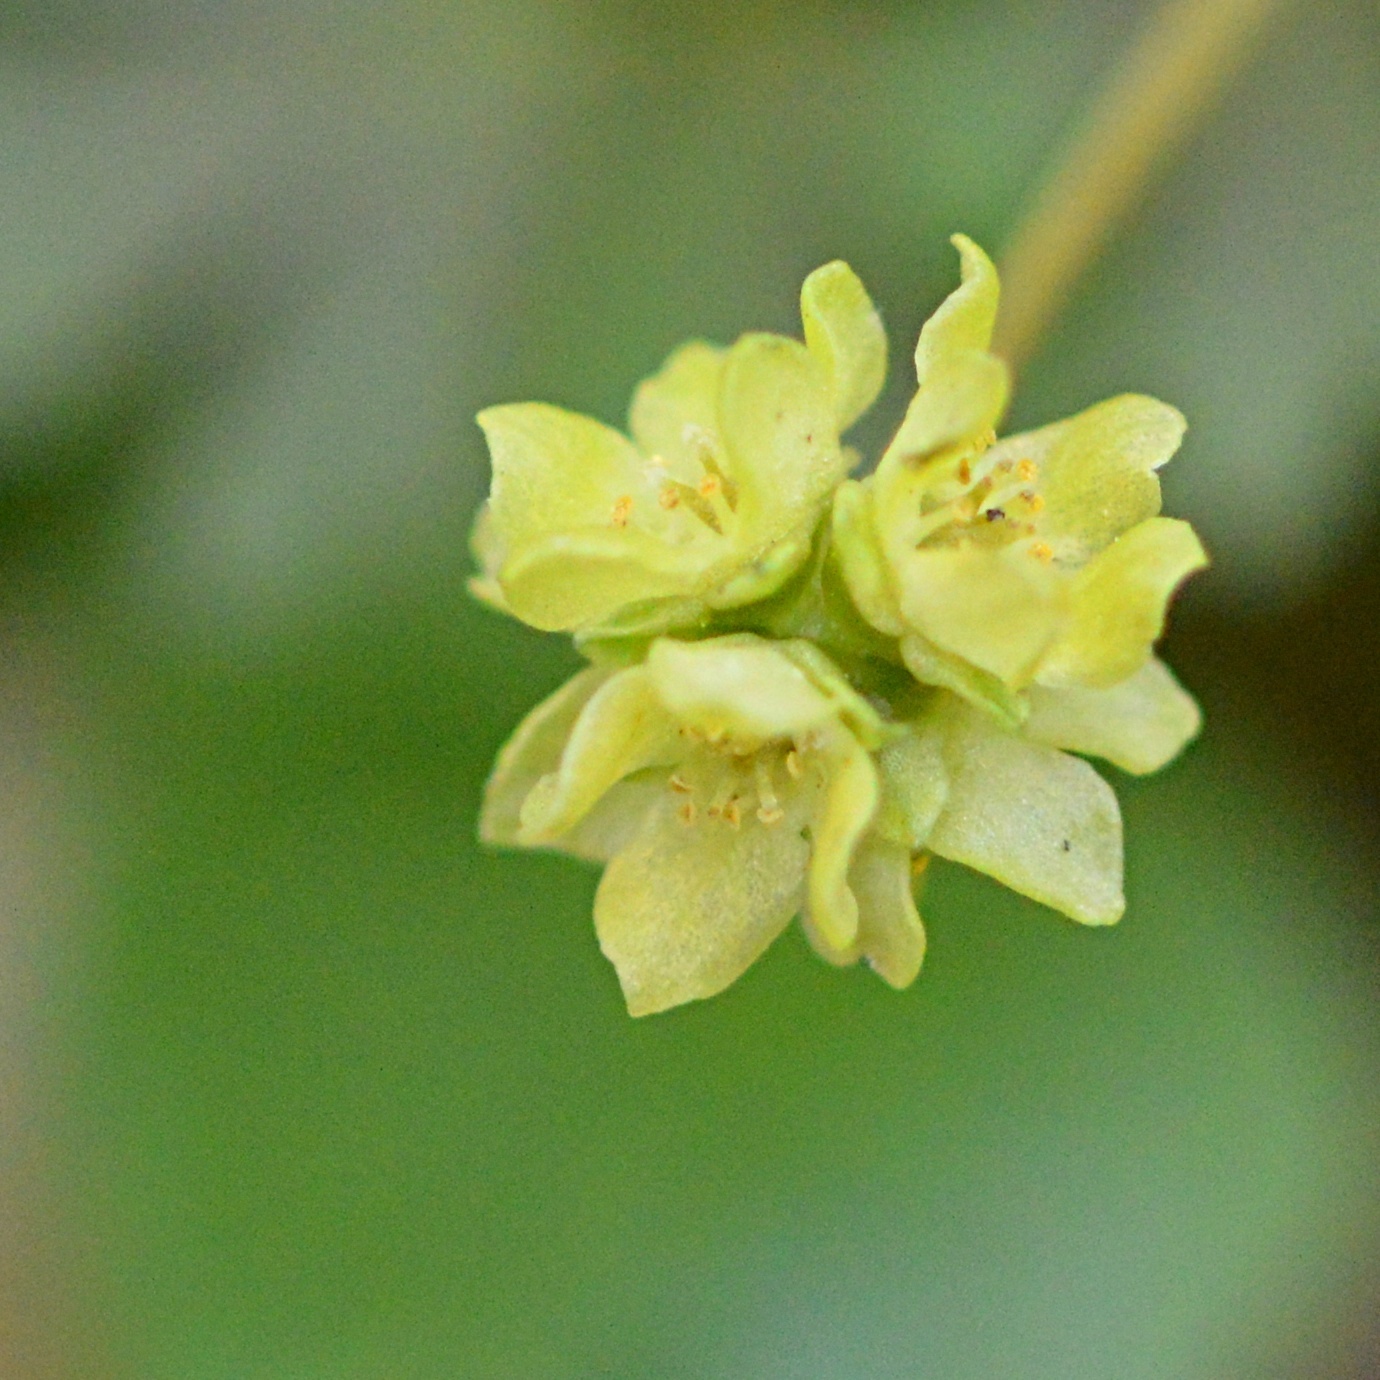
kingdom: Plantae
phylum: Tracheophyta
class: Magnoliopsida
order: Dipsacales
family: Viburnaceae
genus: Adoxa
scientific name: Adoxa moschatellina
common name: Moschatel
